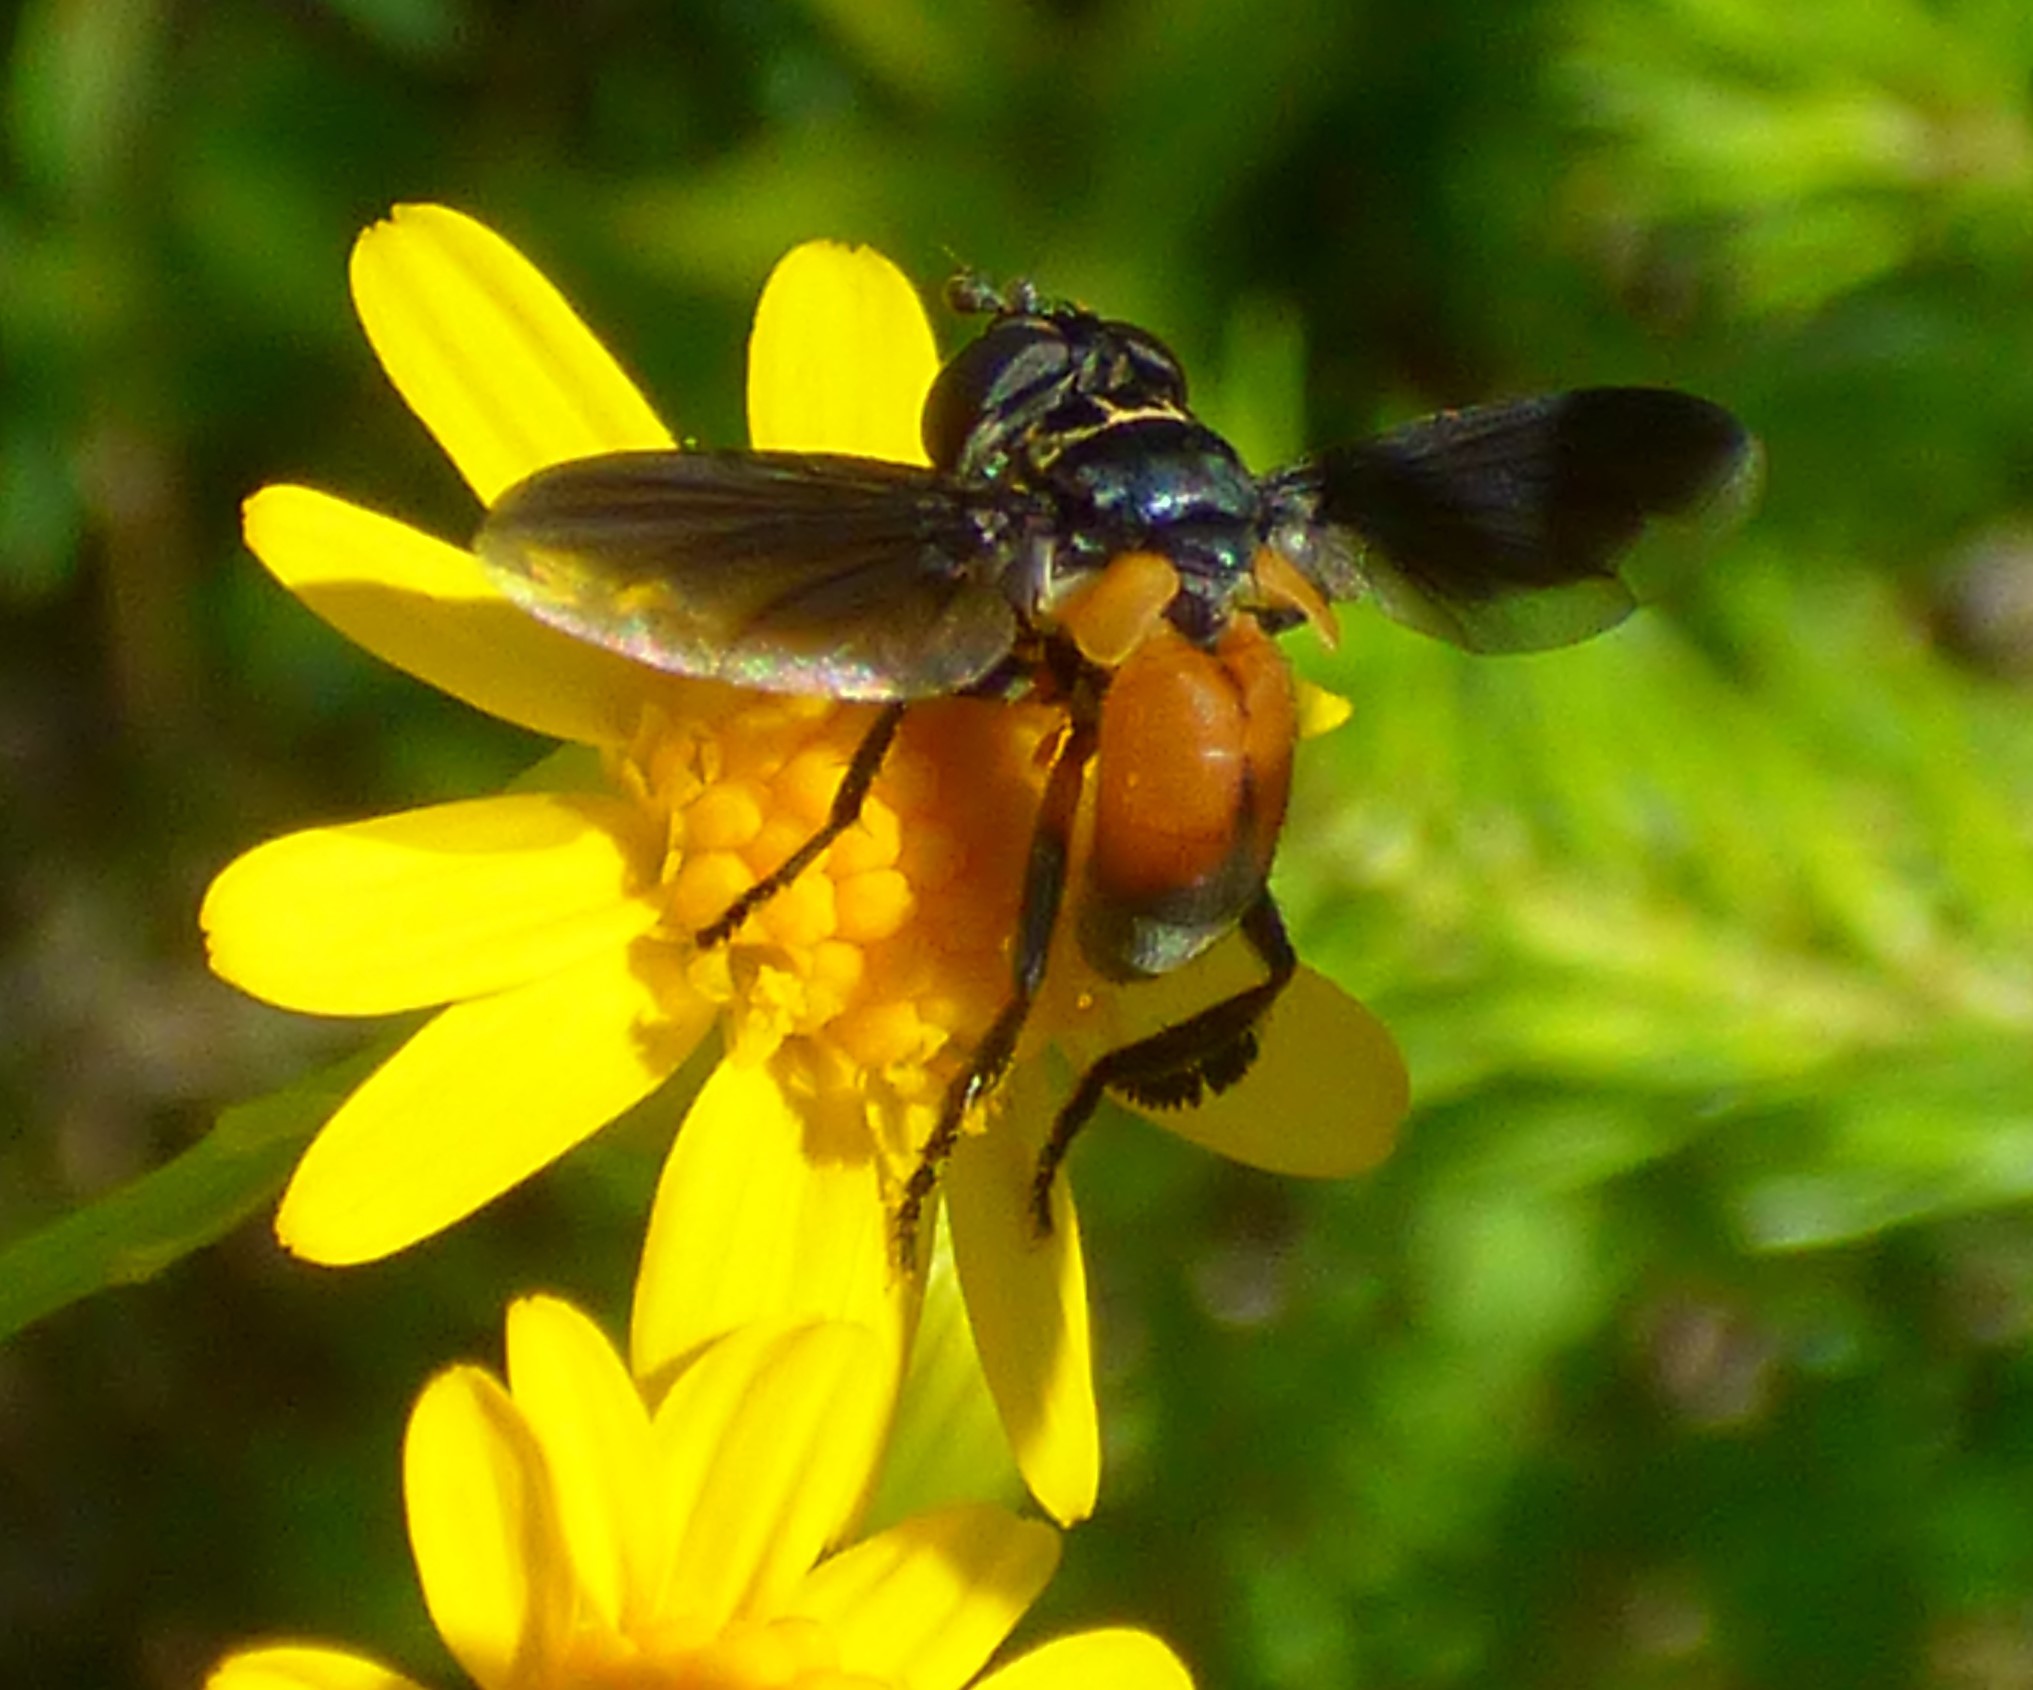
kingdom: Animalia
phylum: Arthropoda
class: Insecta
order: Diptera
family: Tachinidae
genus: Trichopoda
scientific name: Trichopoda pennipes
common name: Tachinid fly
